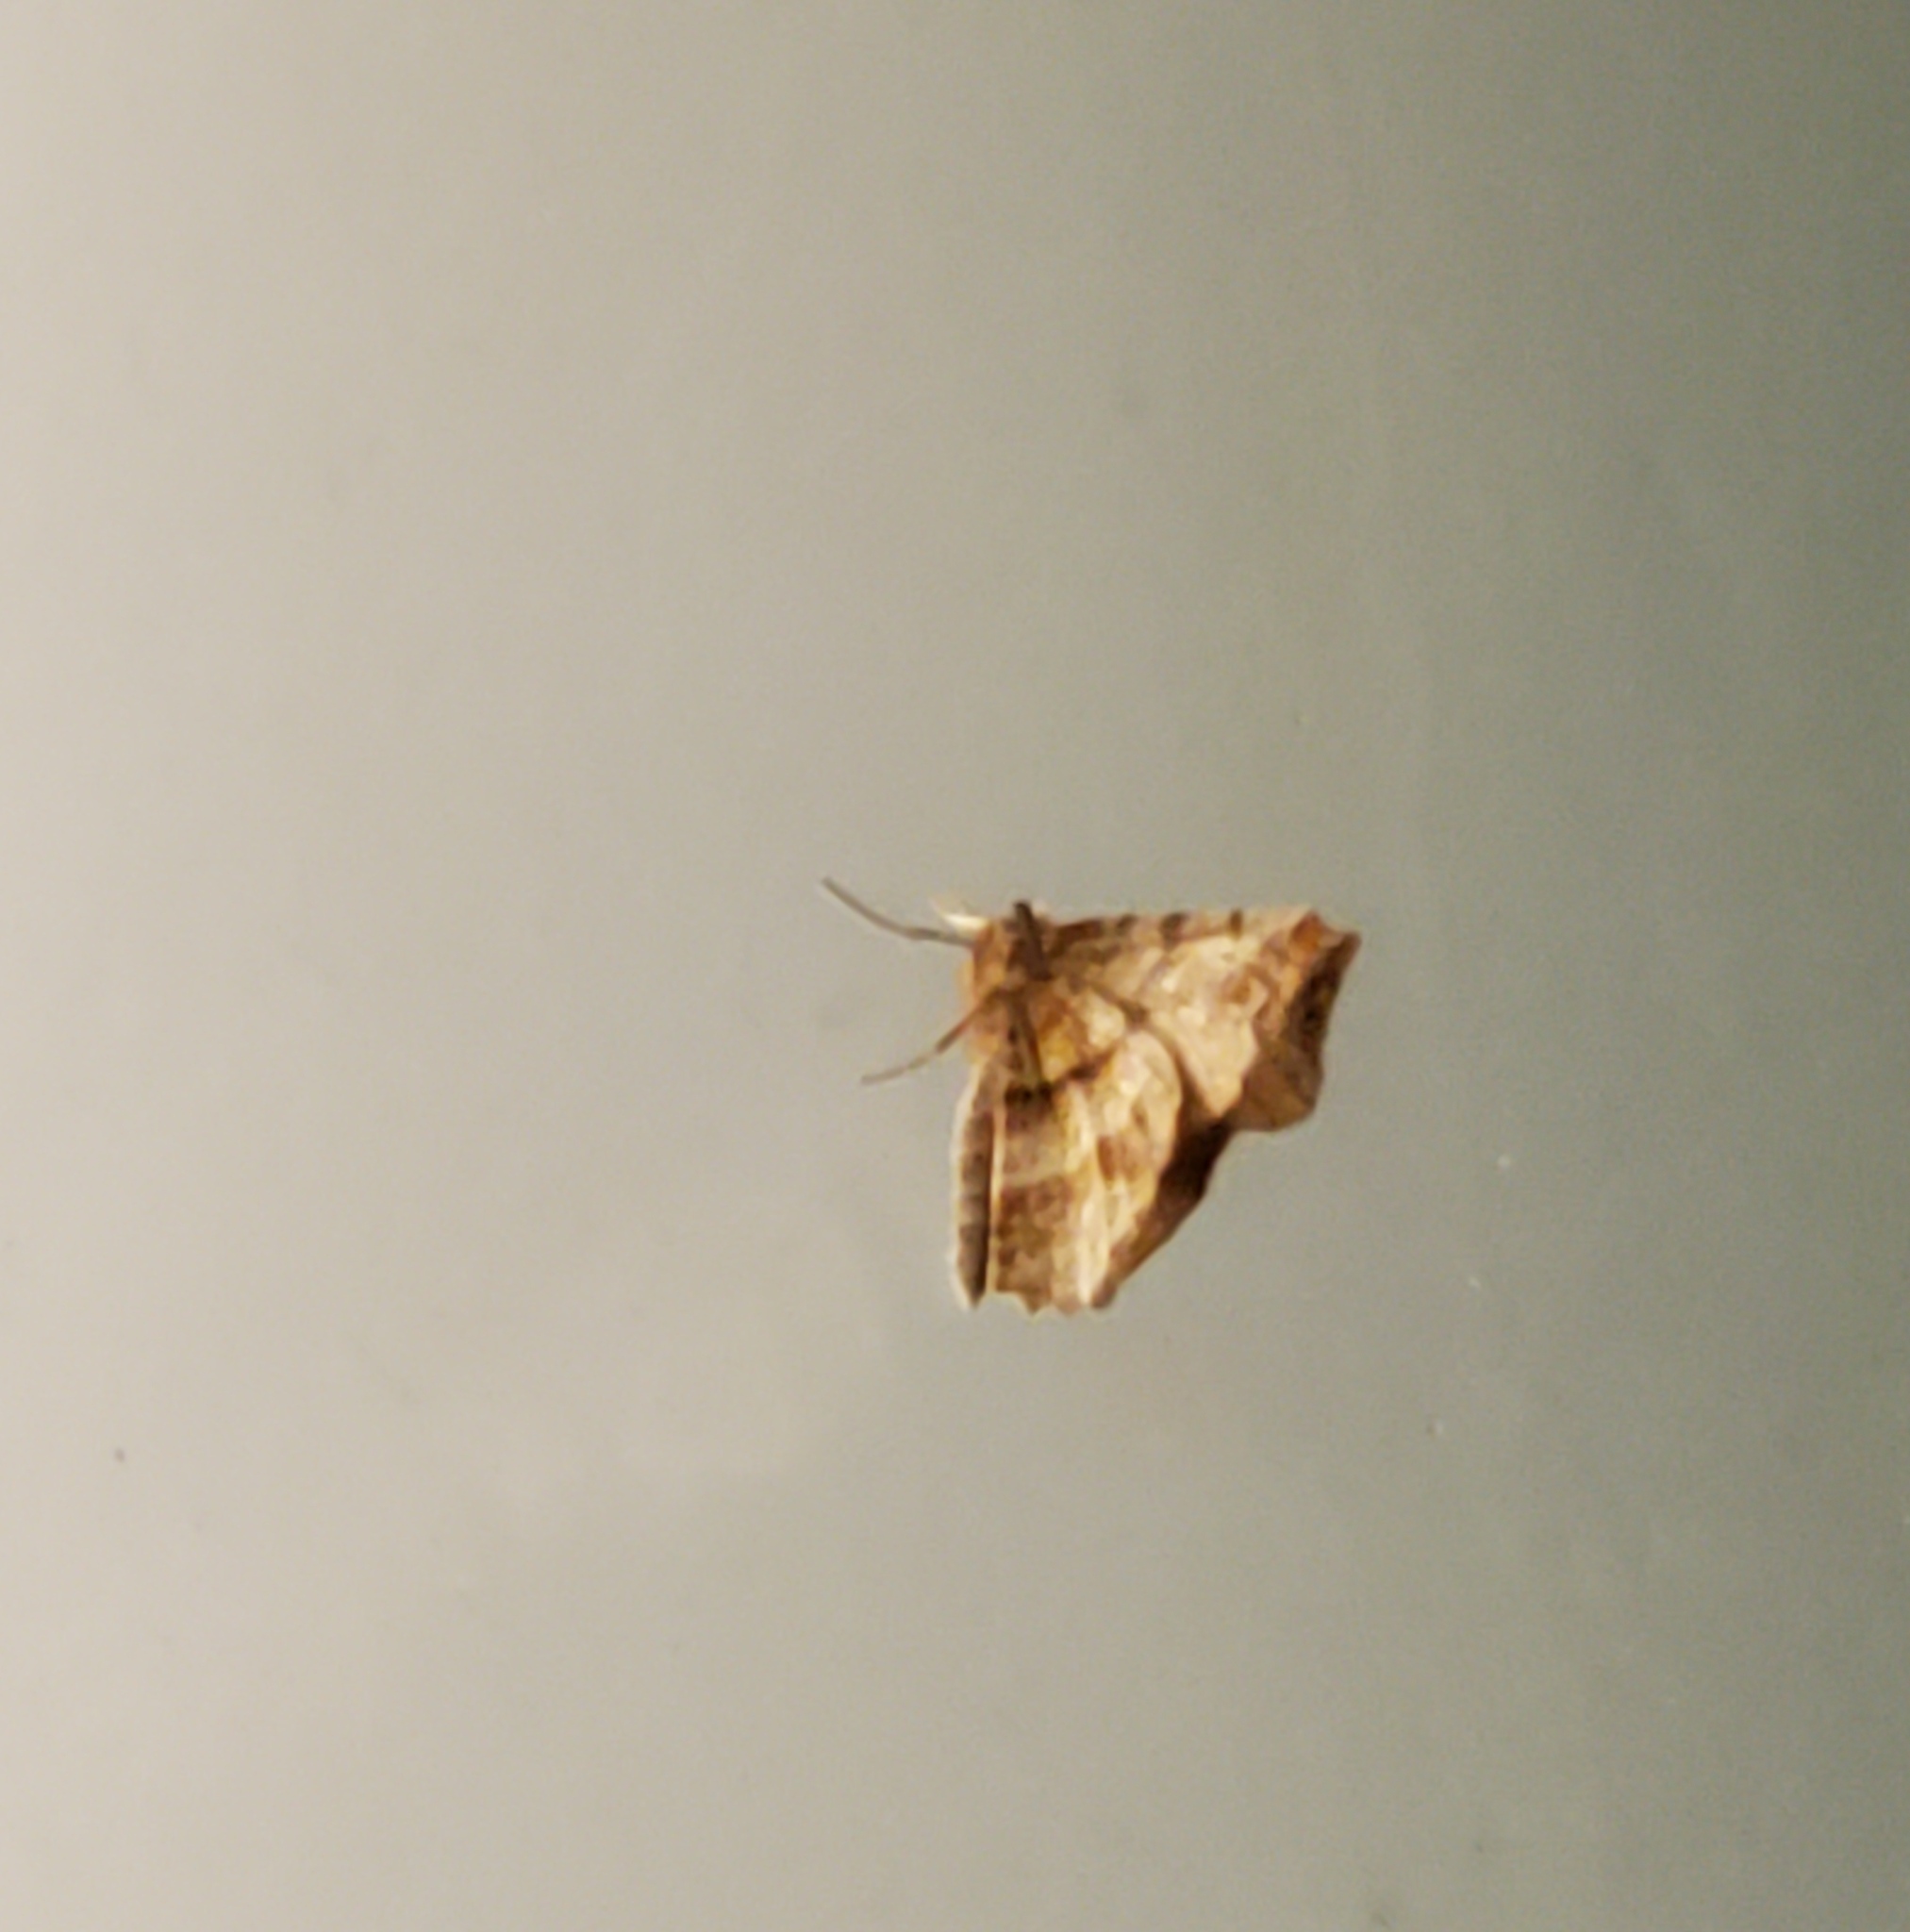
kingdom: Animalia
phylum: Arthropoda
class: Insecta
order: Lepidoptera
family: Geometridae
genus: Selenia
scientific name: Selenia alciphearia
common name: Brown-tipped thorn
